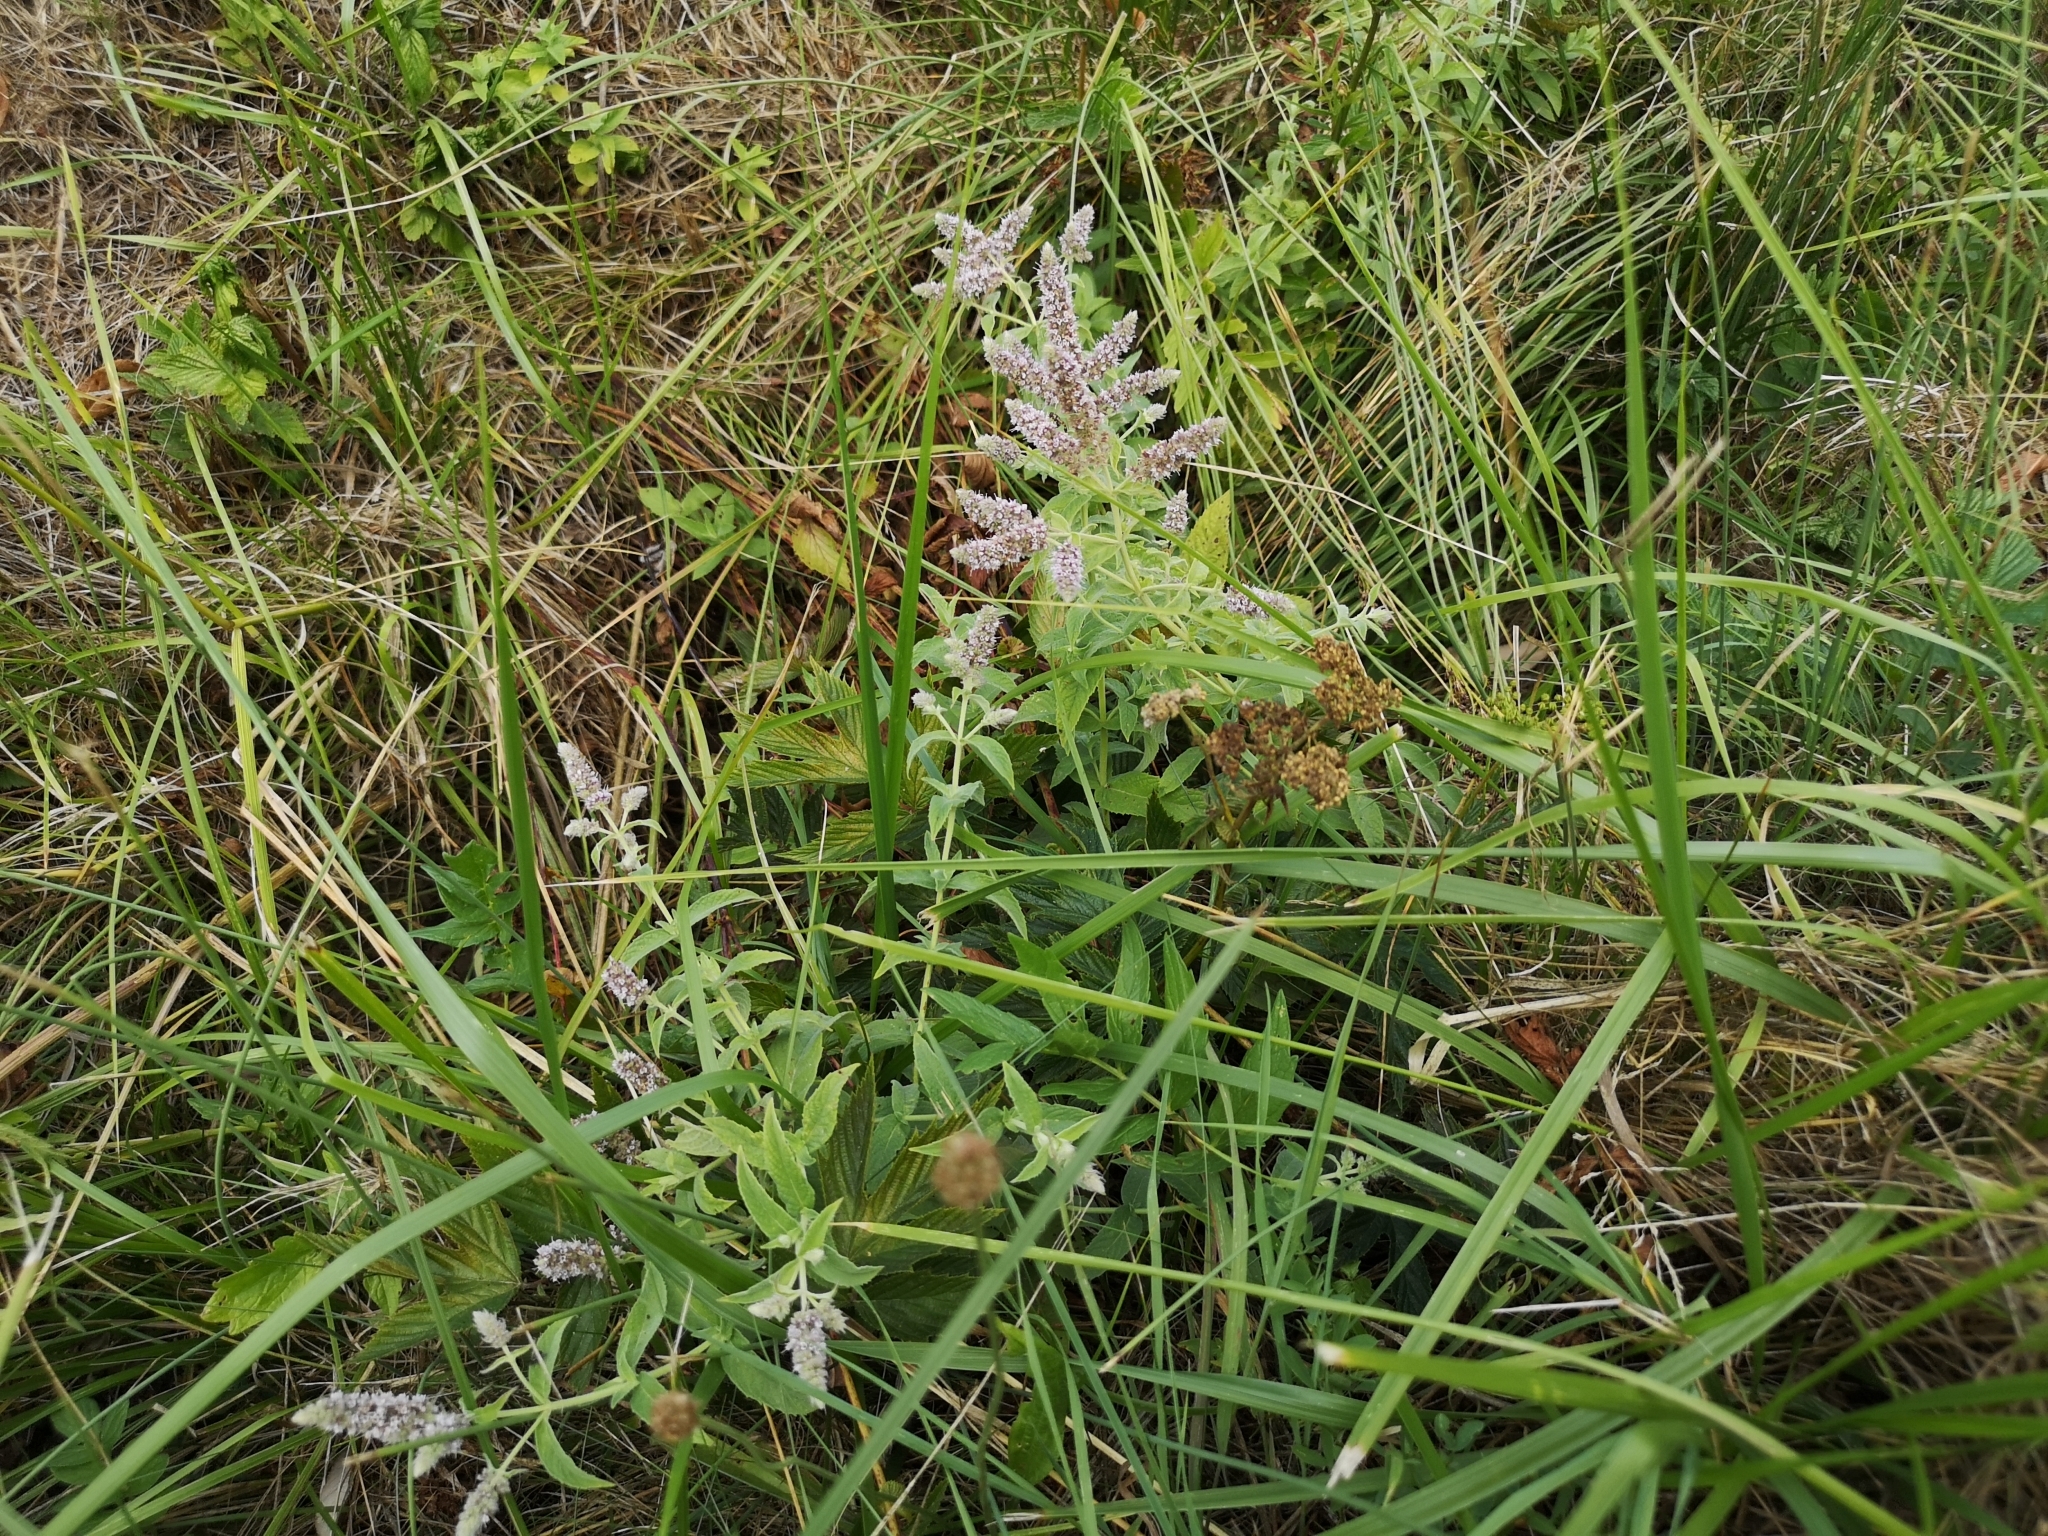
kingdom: Plantae
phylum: Tracheophyta
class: Magnoliopsida
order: Lamiales
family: Lamiaceae
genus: Mentha
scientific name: Mentha longifolia
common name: Horse mint
